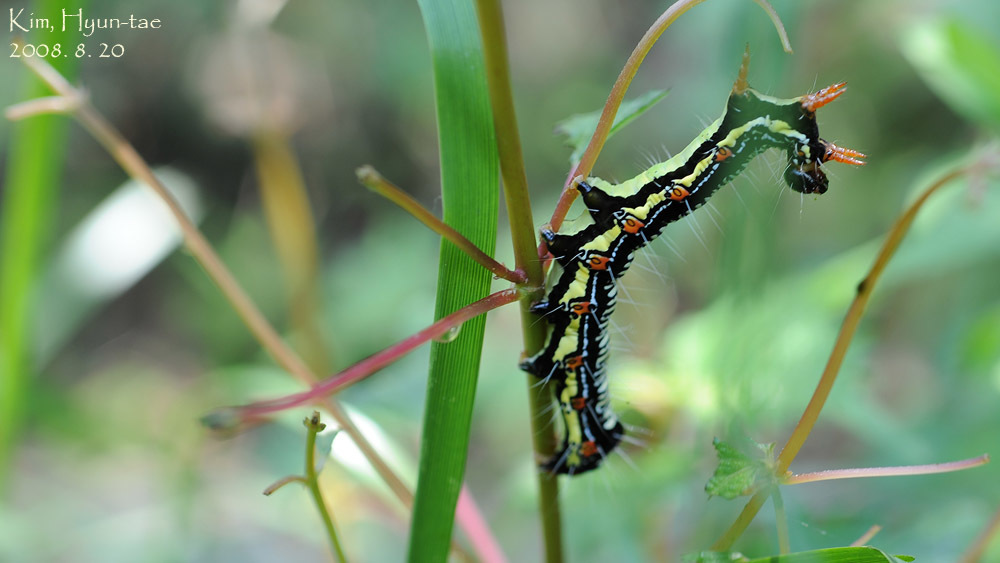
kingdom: Animalia
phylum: Arthropoda
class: Insecta
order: Lepidoptera
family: Erebidae
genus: Arcte
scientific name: Arcte coerula
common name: Ramie moth
